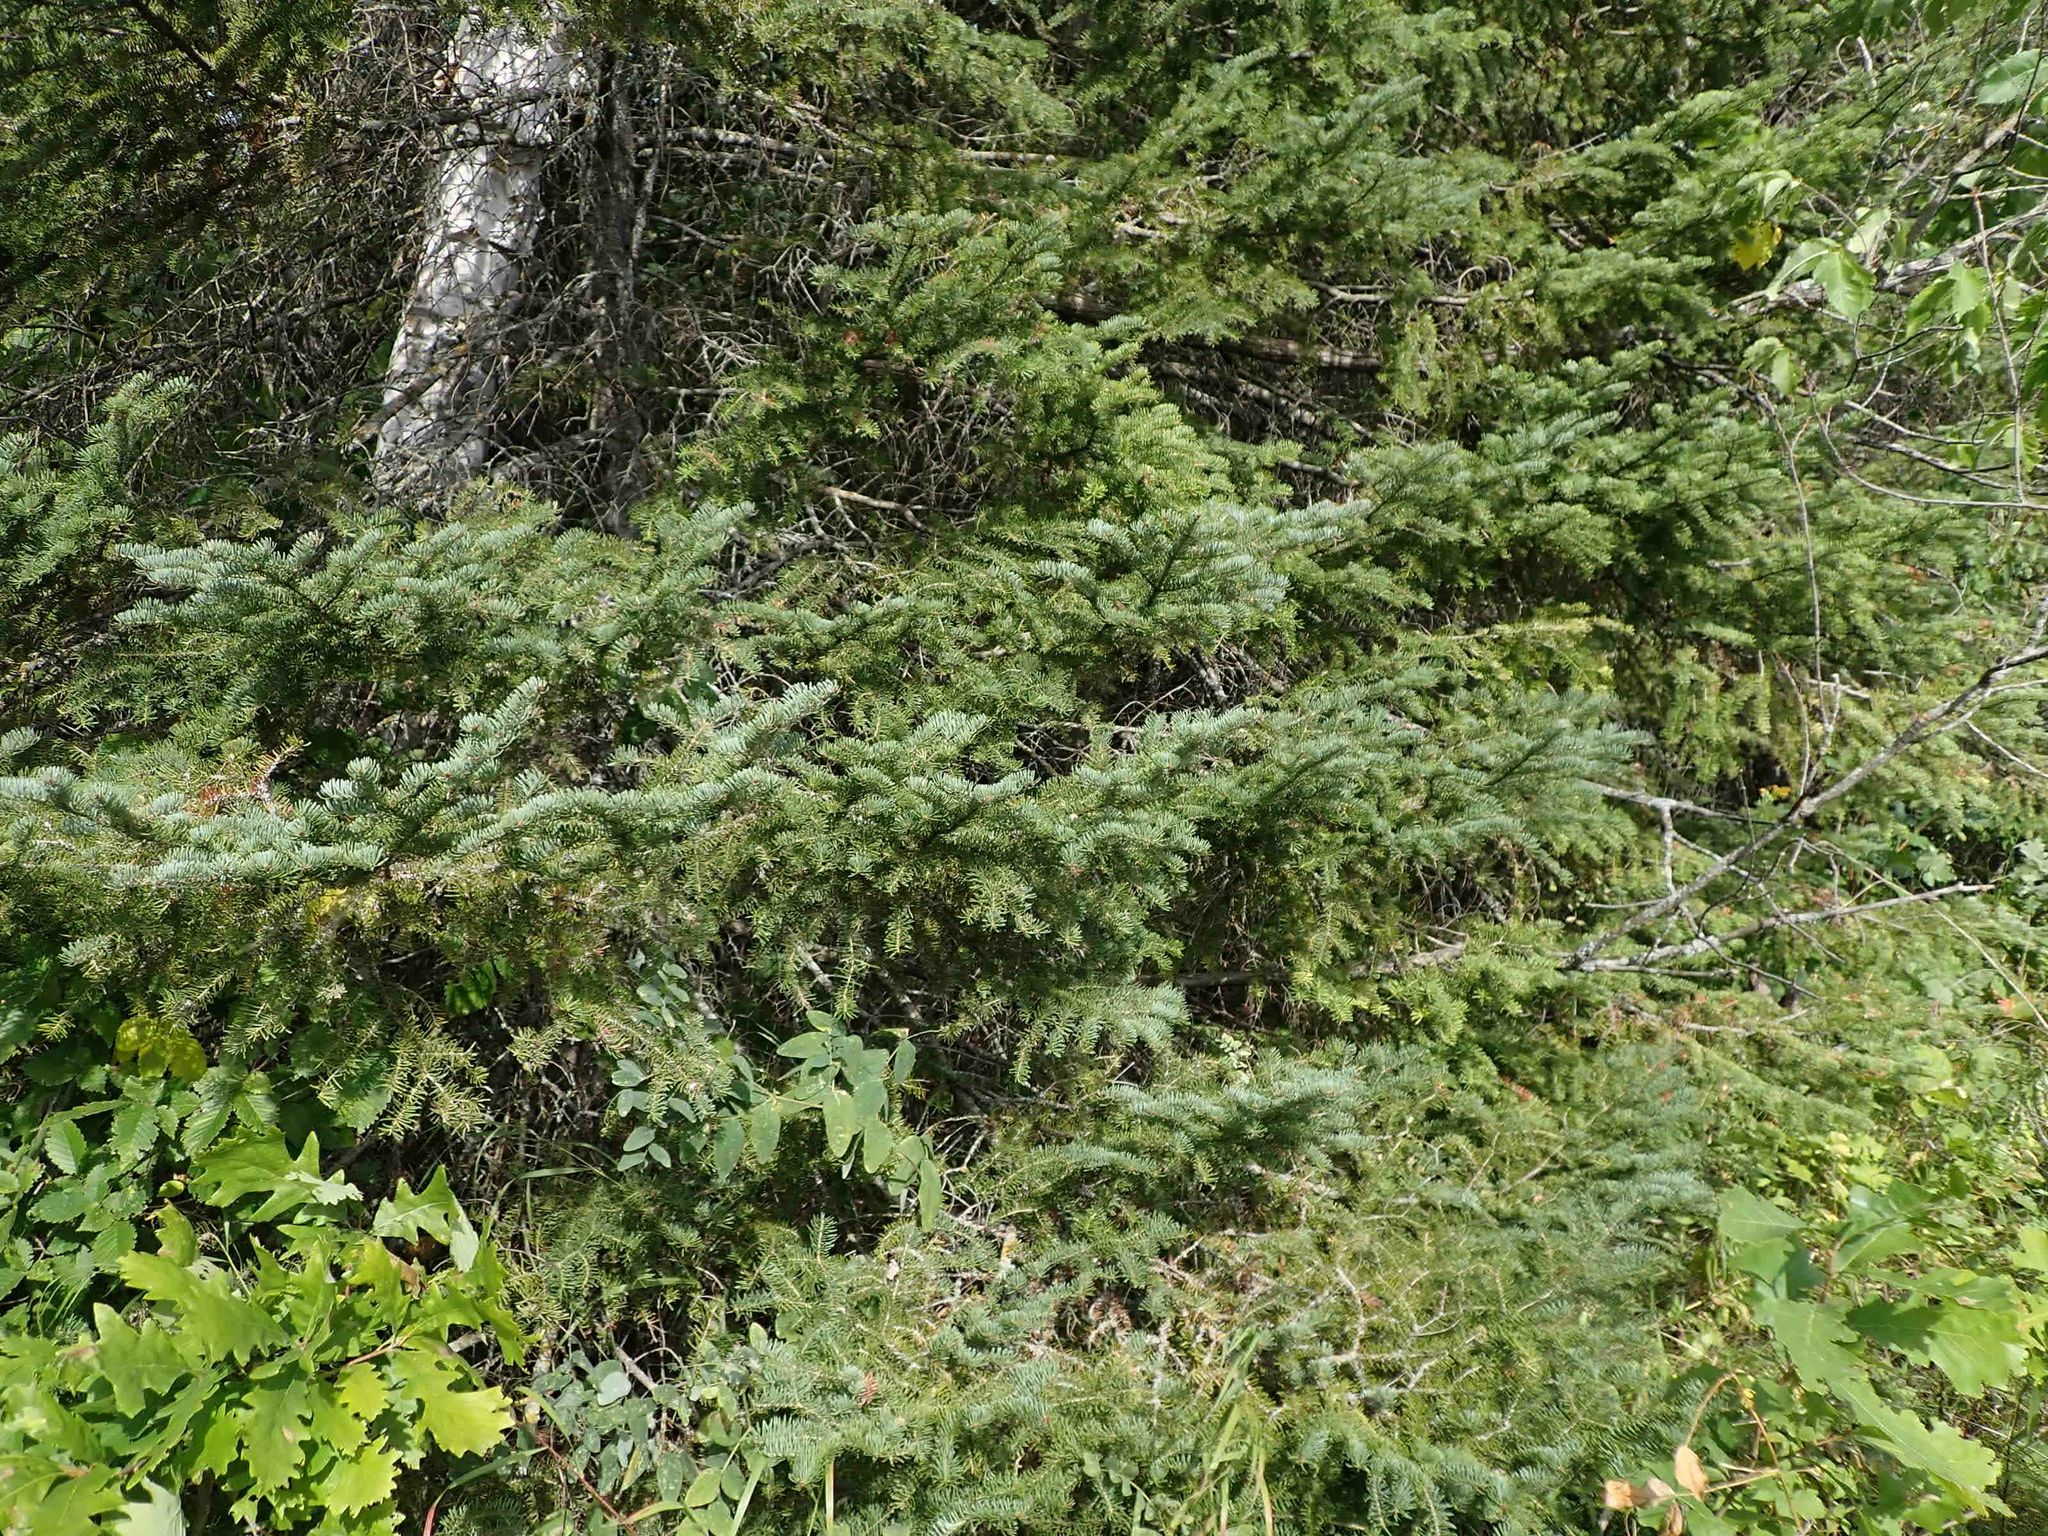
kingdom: Plantae
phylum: Tracheophyta
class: Pinopsida
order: Pinales
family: Pinaceae
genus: Picea
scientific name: Picea glauca
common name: White spruce
